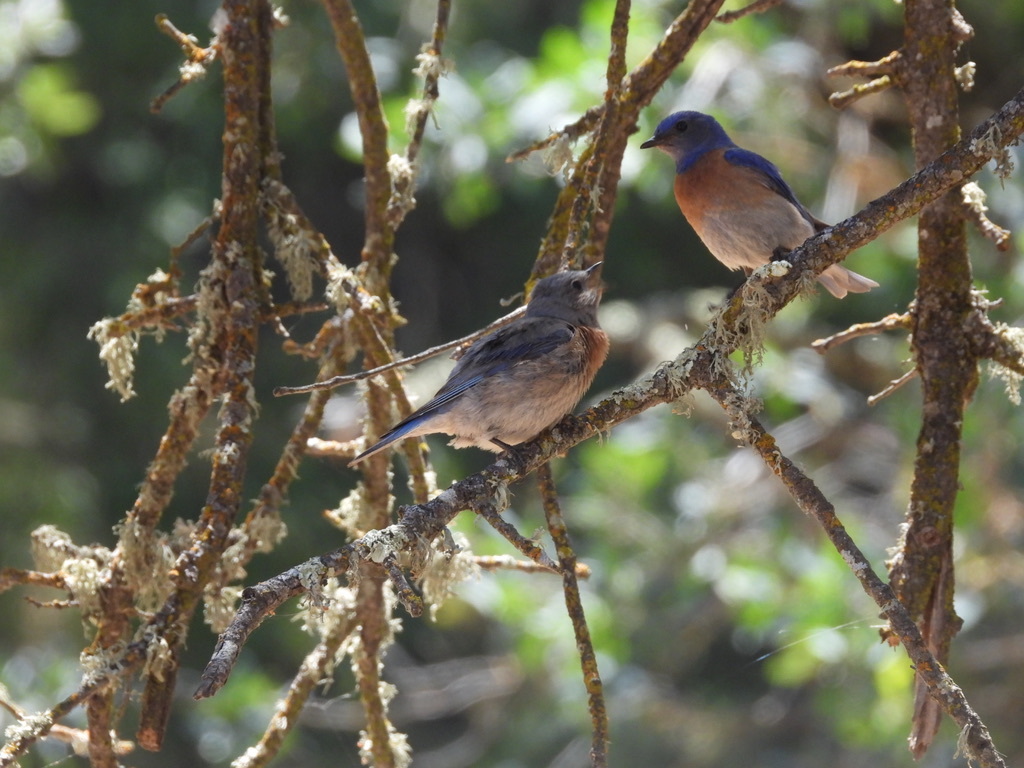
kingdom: Animalia
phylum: Chordata
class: Aves
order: Passeriformes
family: Turdidae
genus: Sialia
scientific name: Sialia mexicana
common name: Western bluebird
